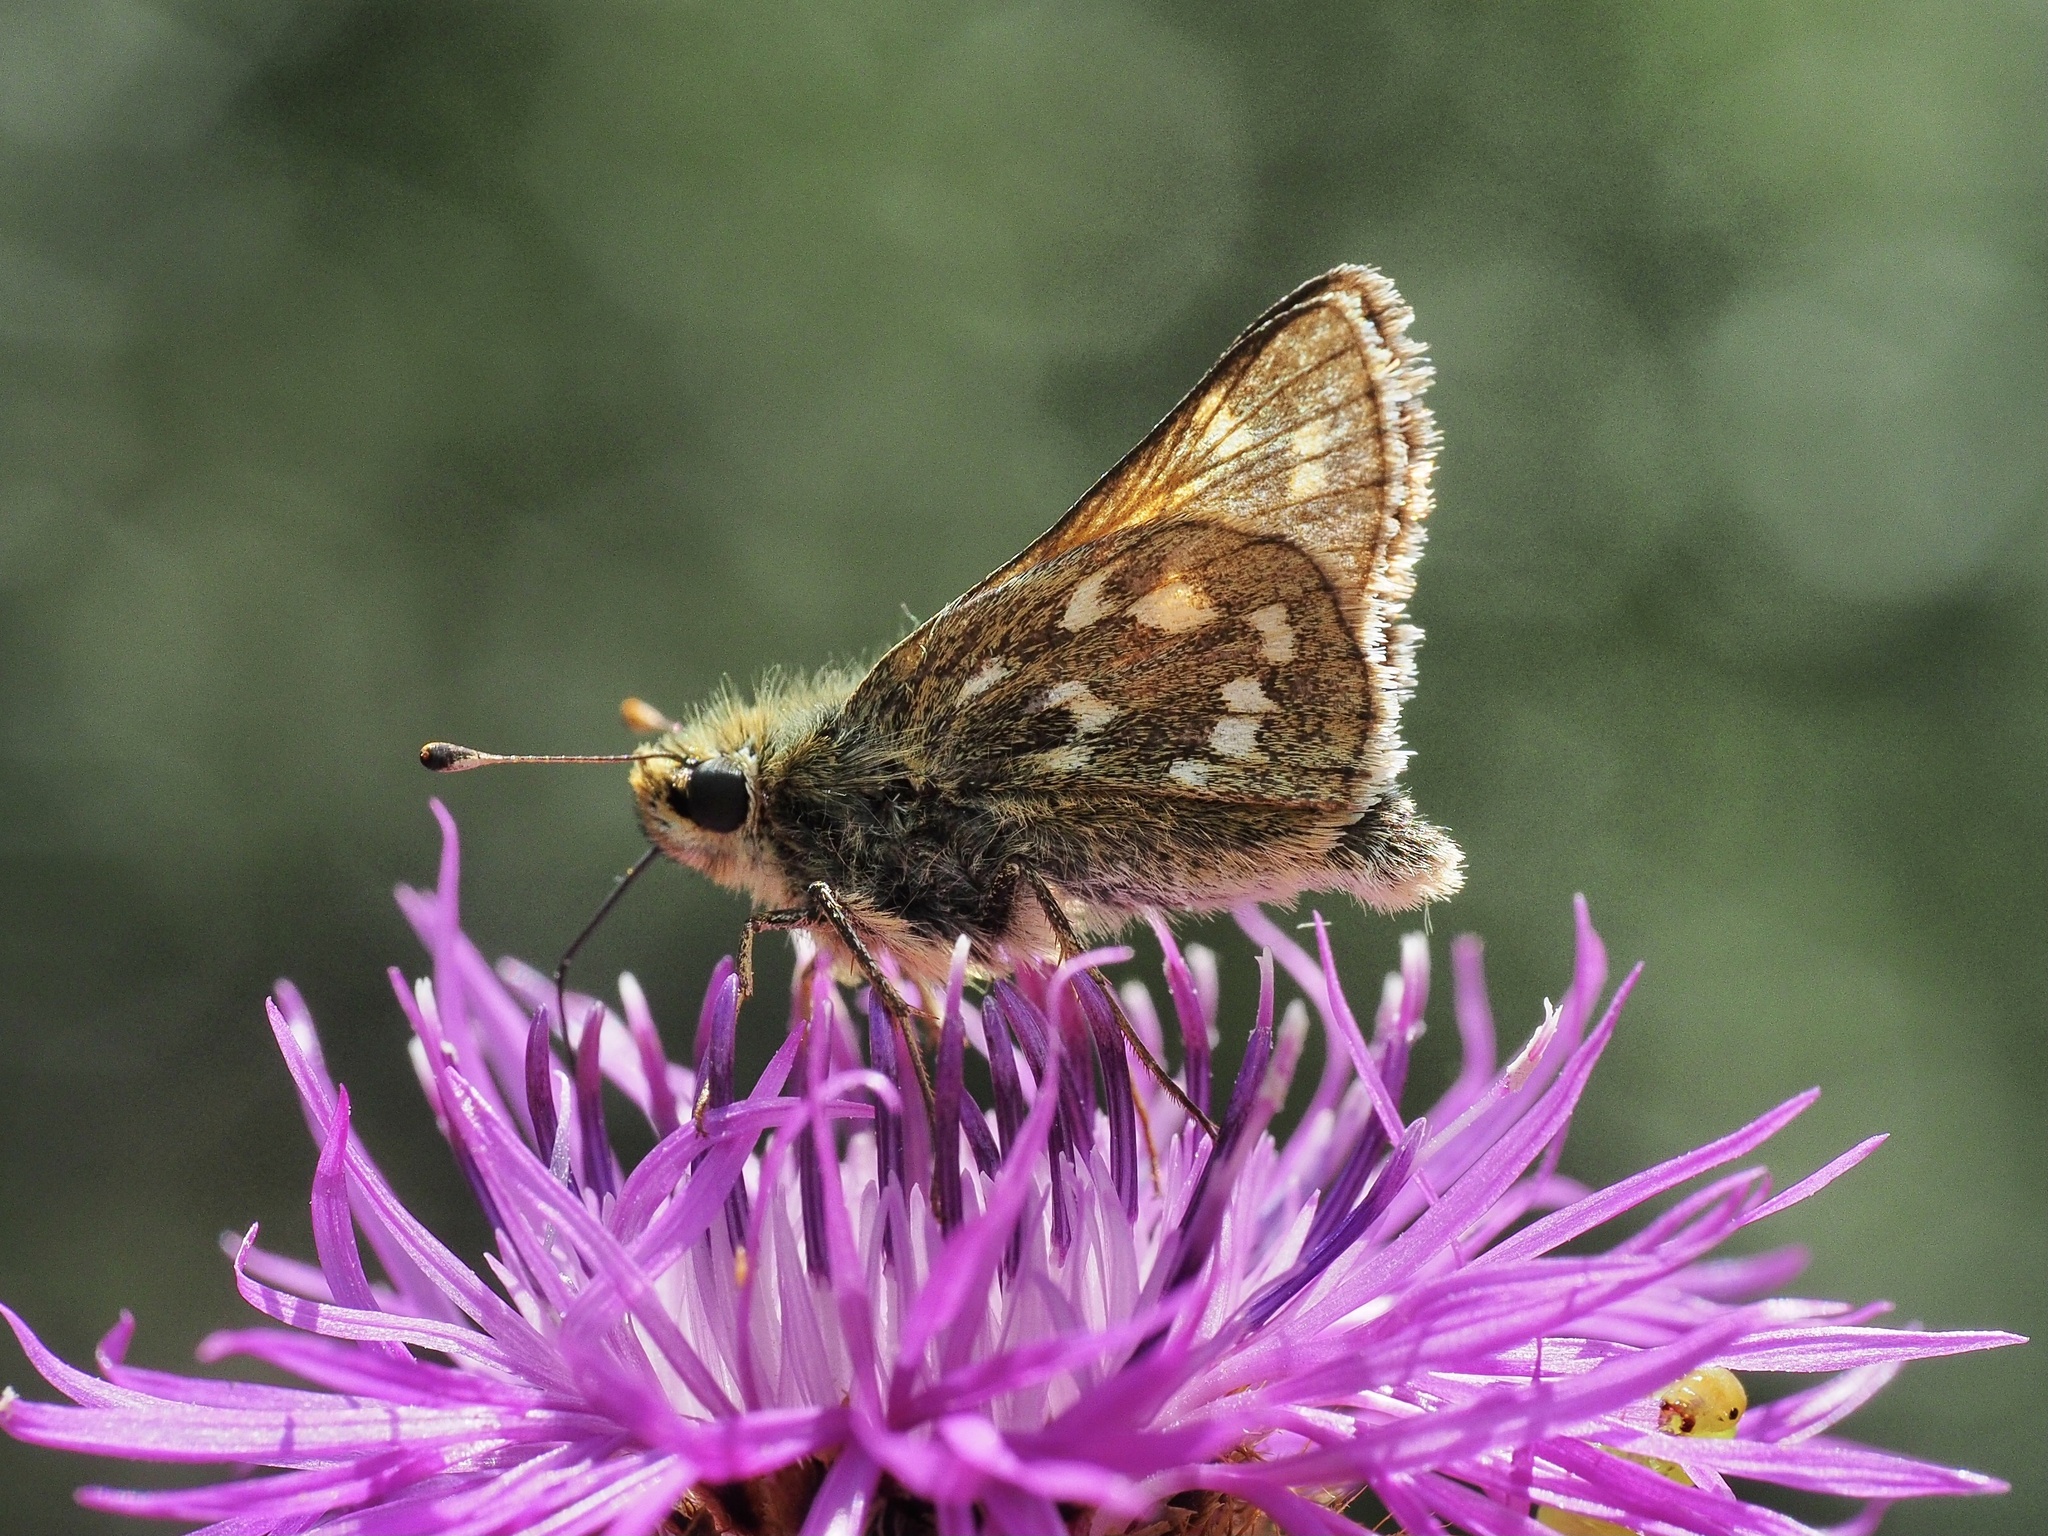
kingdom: Animalia
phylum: Arthropoda
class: Insecta
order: Lepidoptera
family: Hesperiidae
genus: Hesperia
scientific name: Hesperia comma
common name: Common branded skipper
